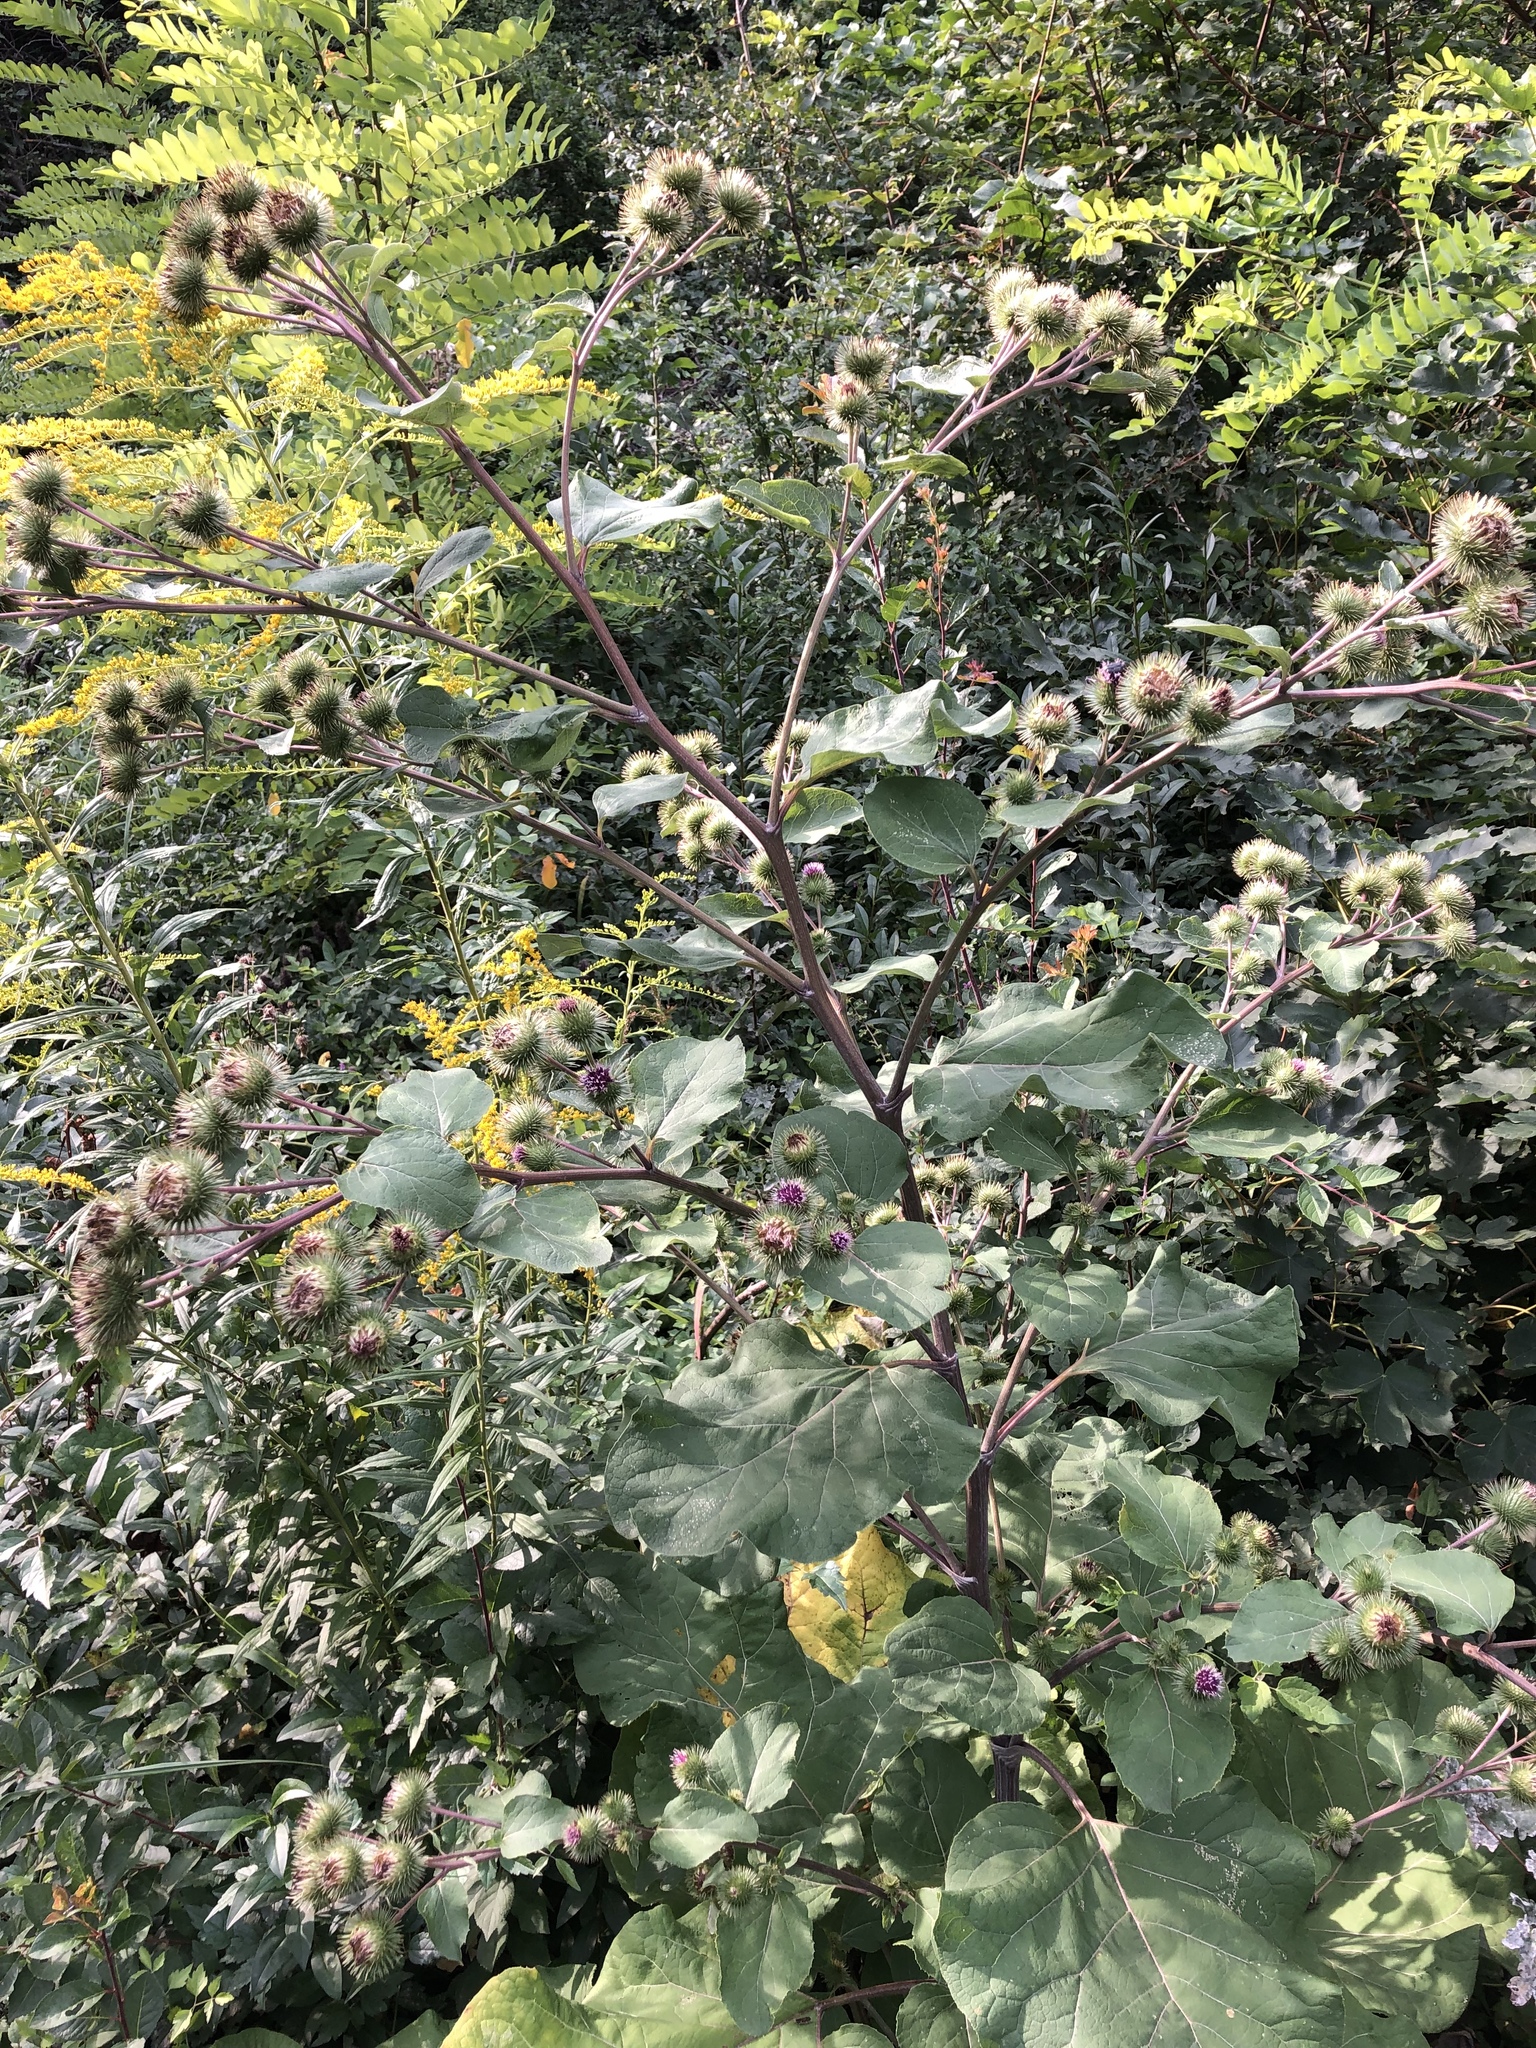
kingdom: Plantae
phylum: Tracheophyta
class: Magnoliopsida
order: Asterales
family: Asteraceae
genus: Arctium
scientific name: Arctium lappa
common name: Greater burdock
